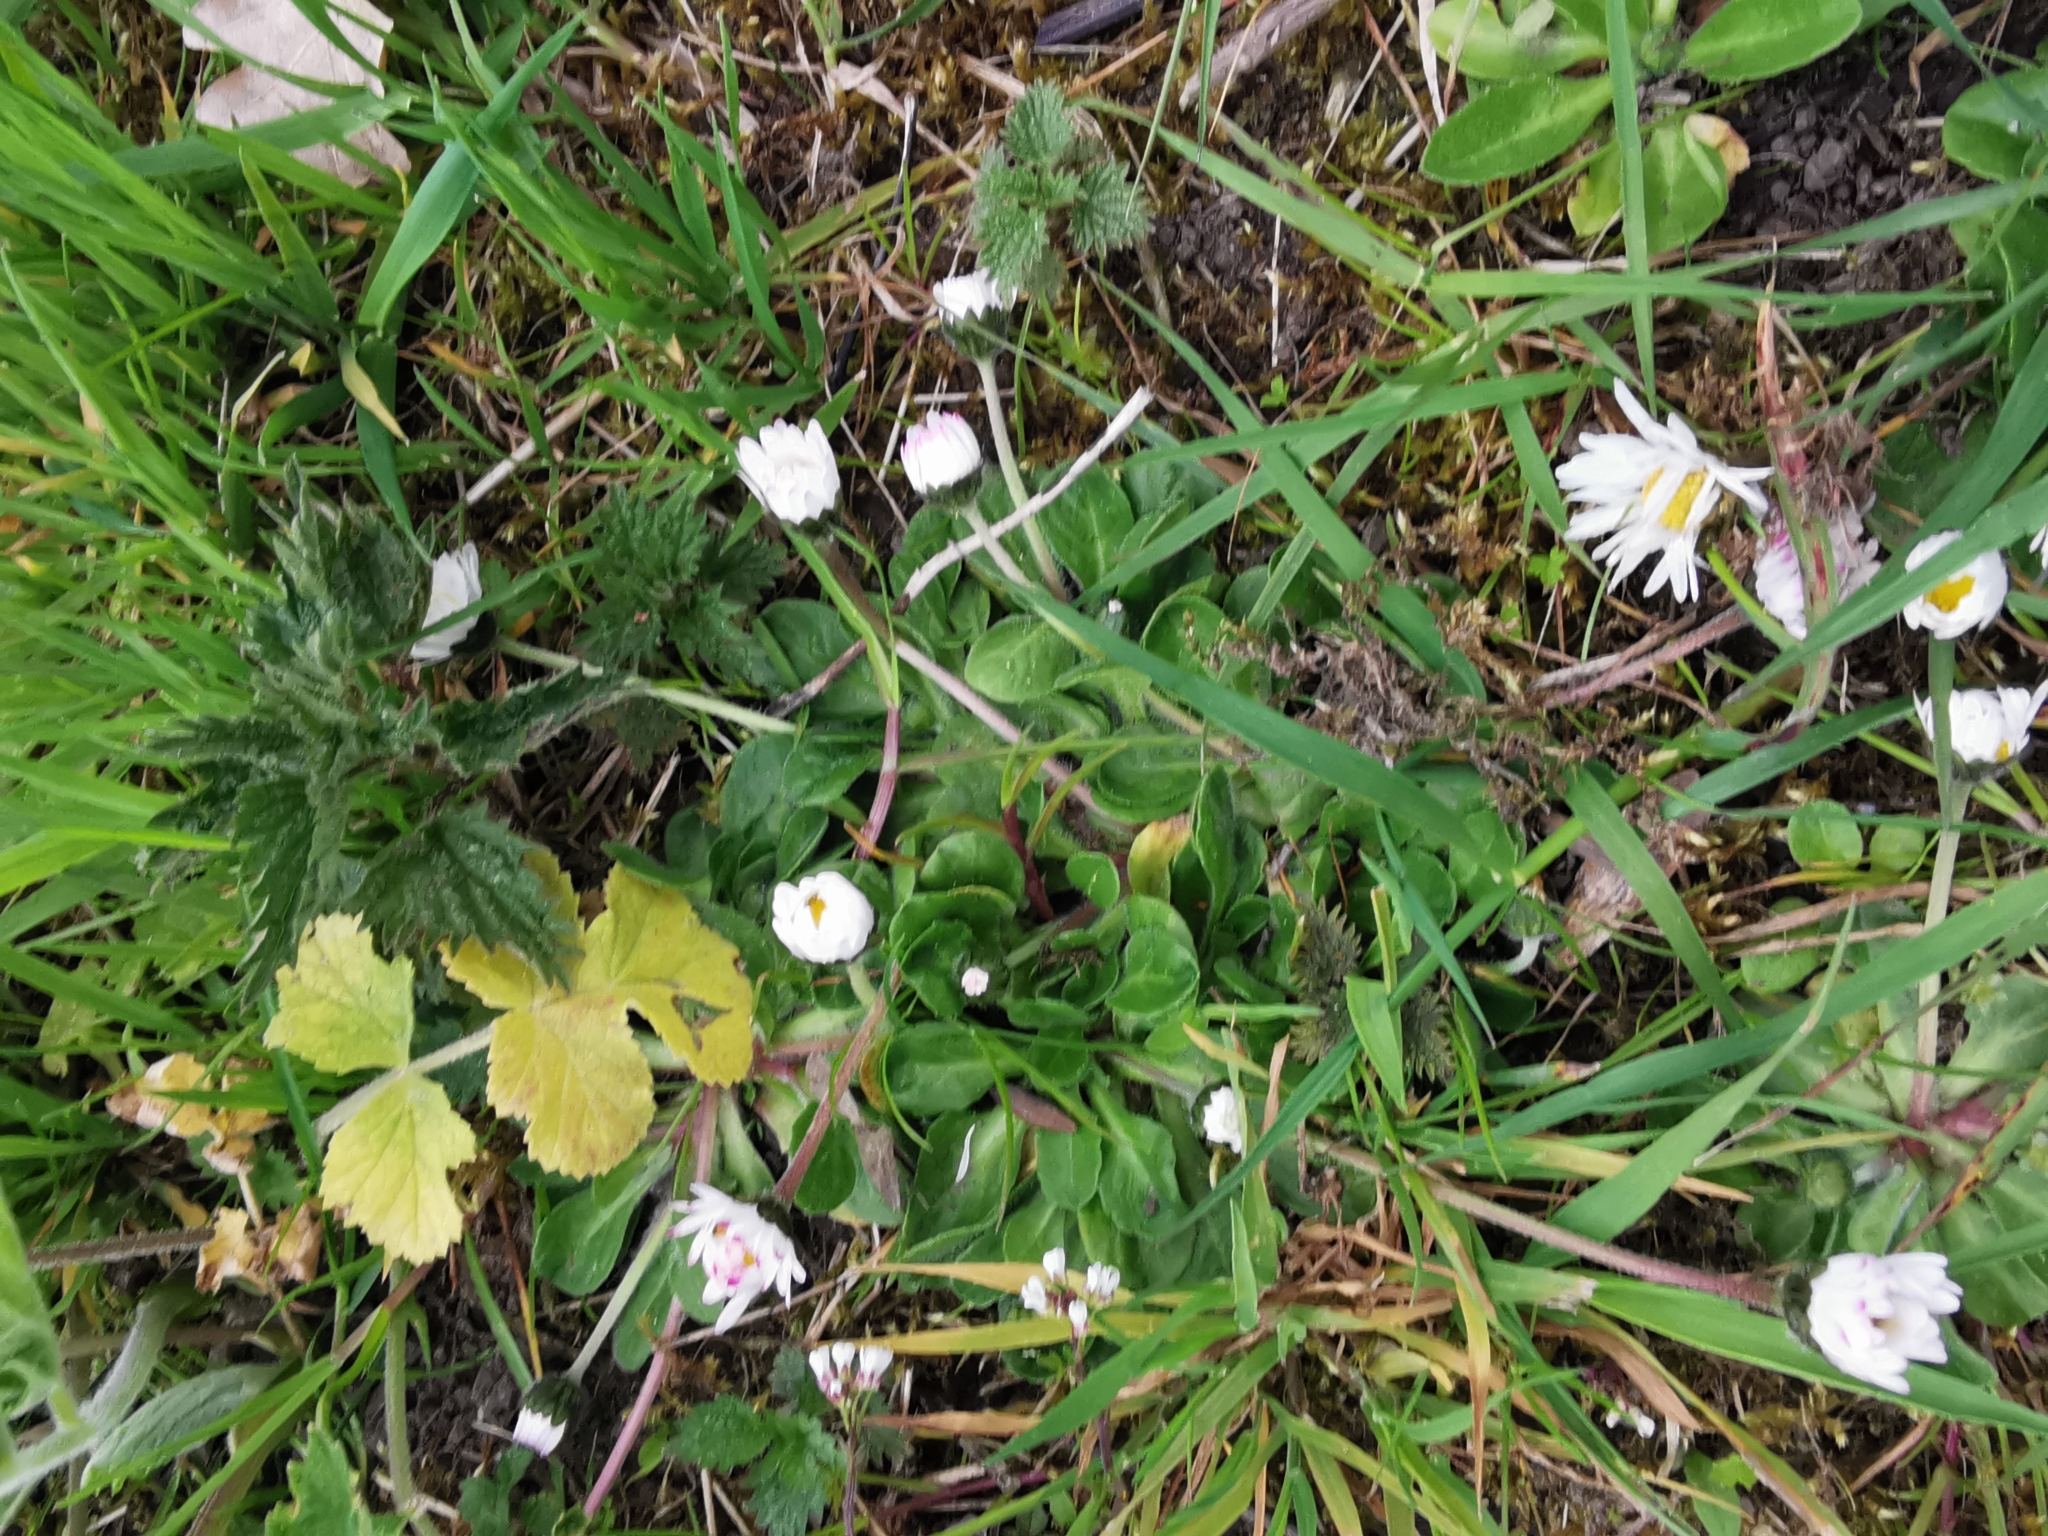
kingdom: Plantae
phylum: Tracheophyta
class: Magnoliopsida
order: Asterales
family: Asteraceae
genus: Bellis
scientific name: Bellis perennis
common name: Lawndaisy
